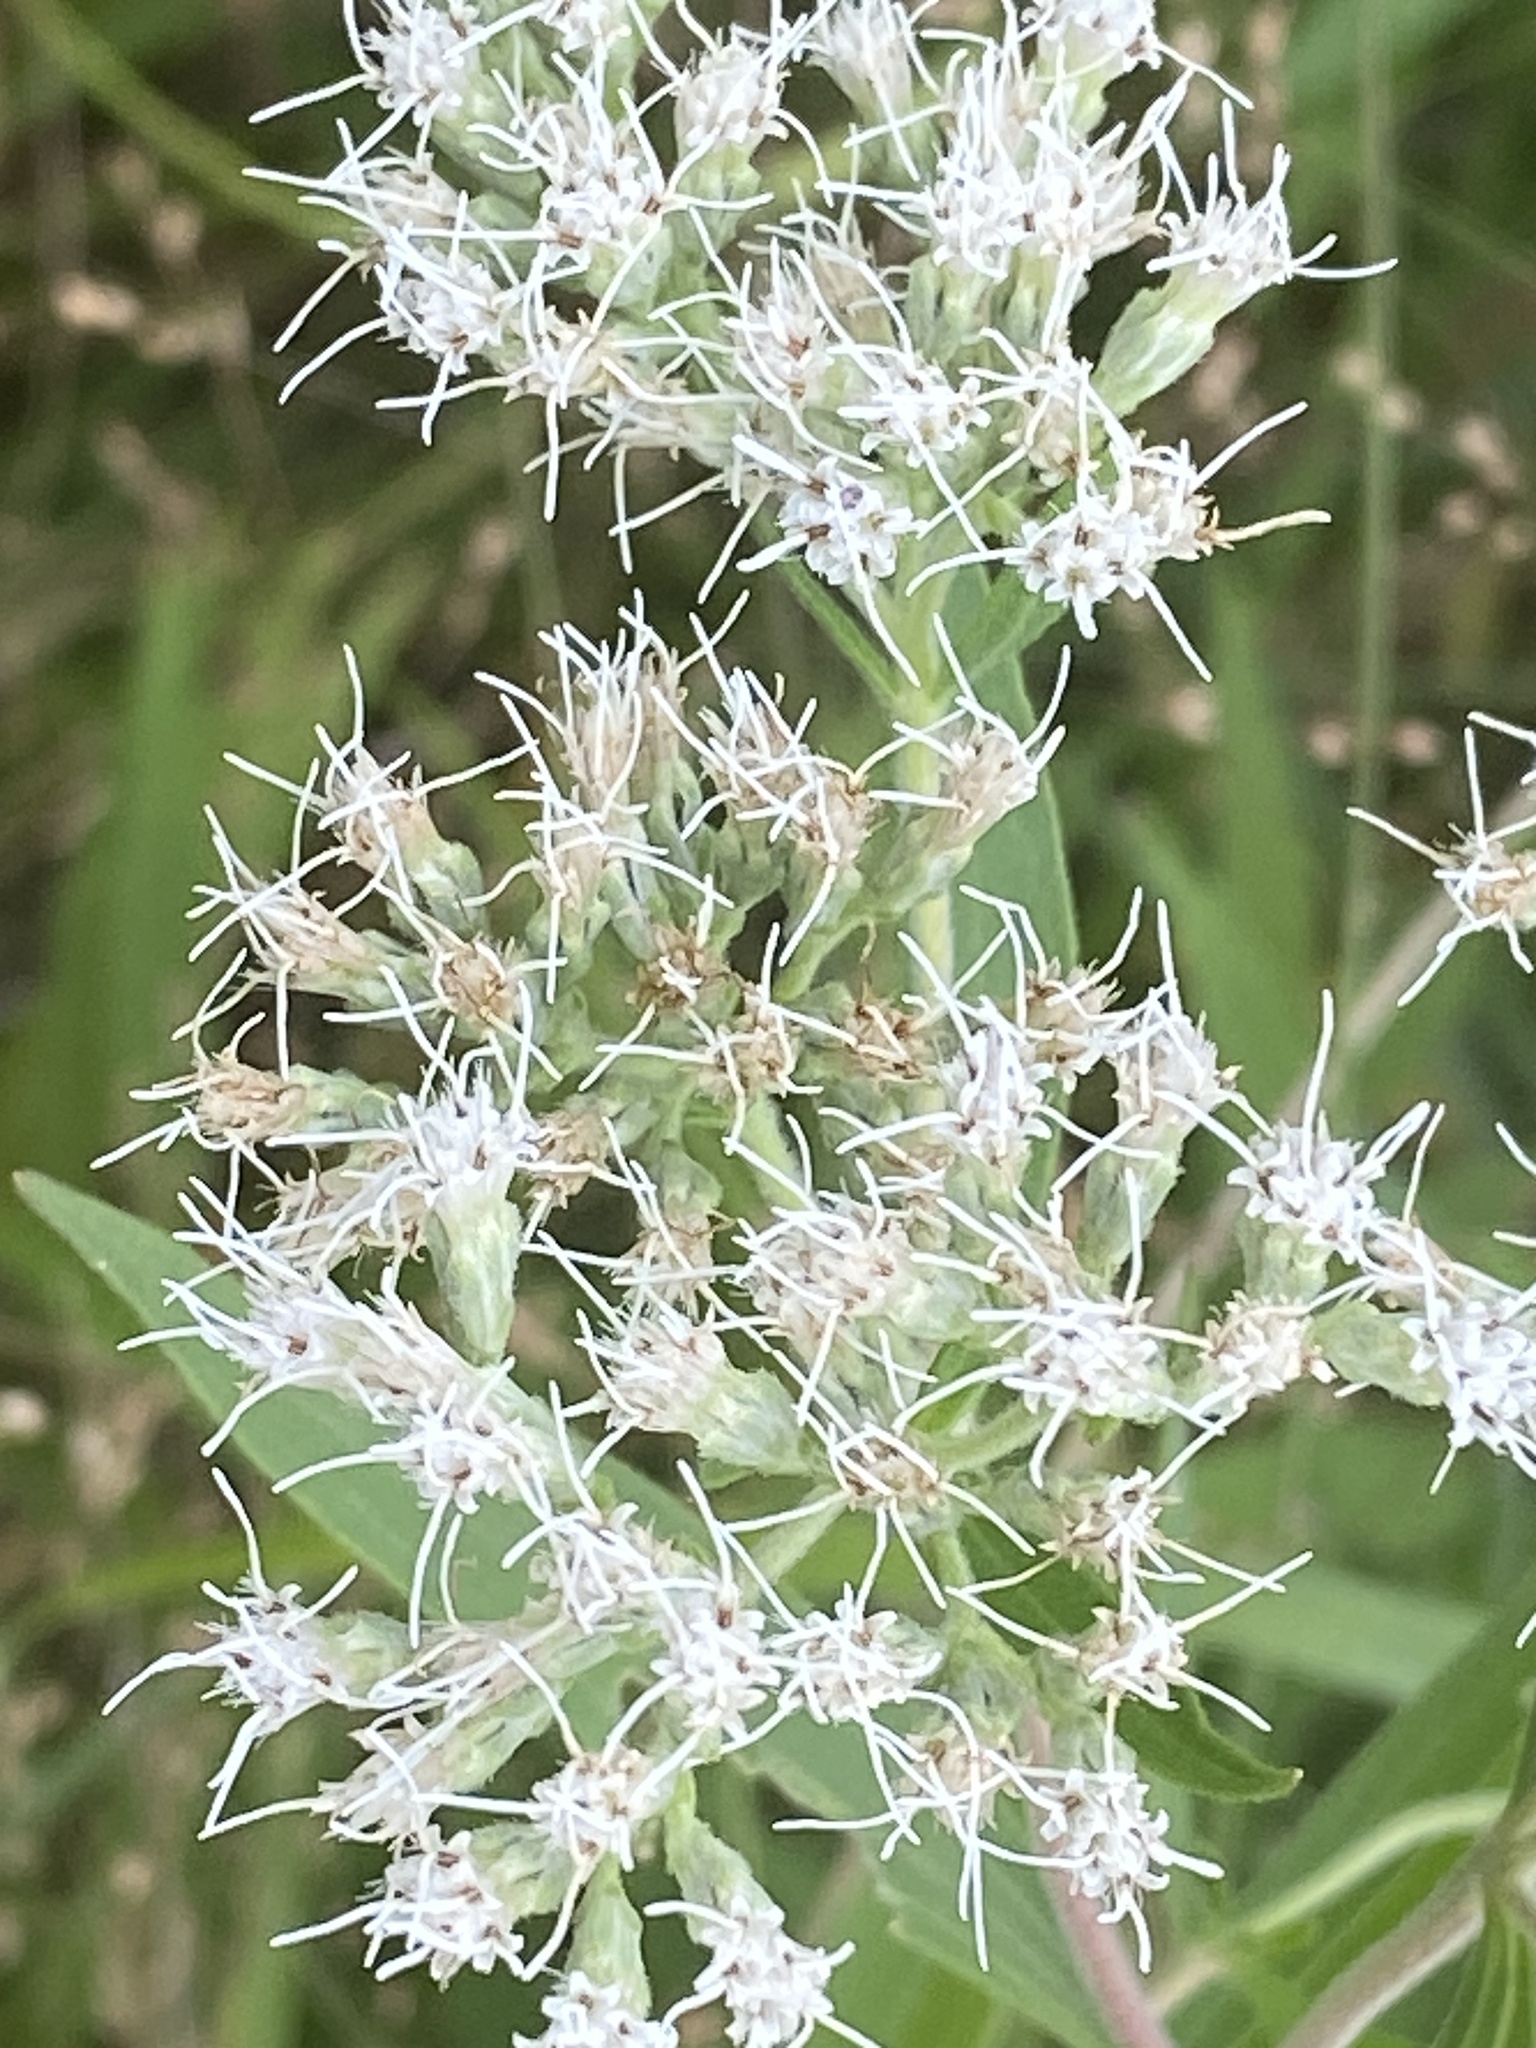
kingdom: Plantae
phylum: Tracheophyta
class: Magnoliopsida
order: Asterales
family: Asteraceae
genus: Eupatorium
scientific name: Eupatorium altissimum
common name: Tall thoroughwort
